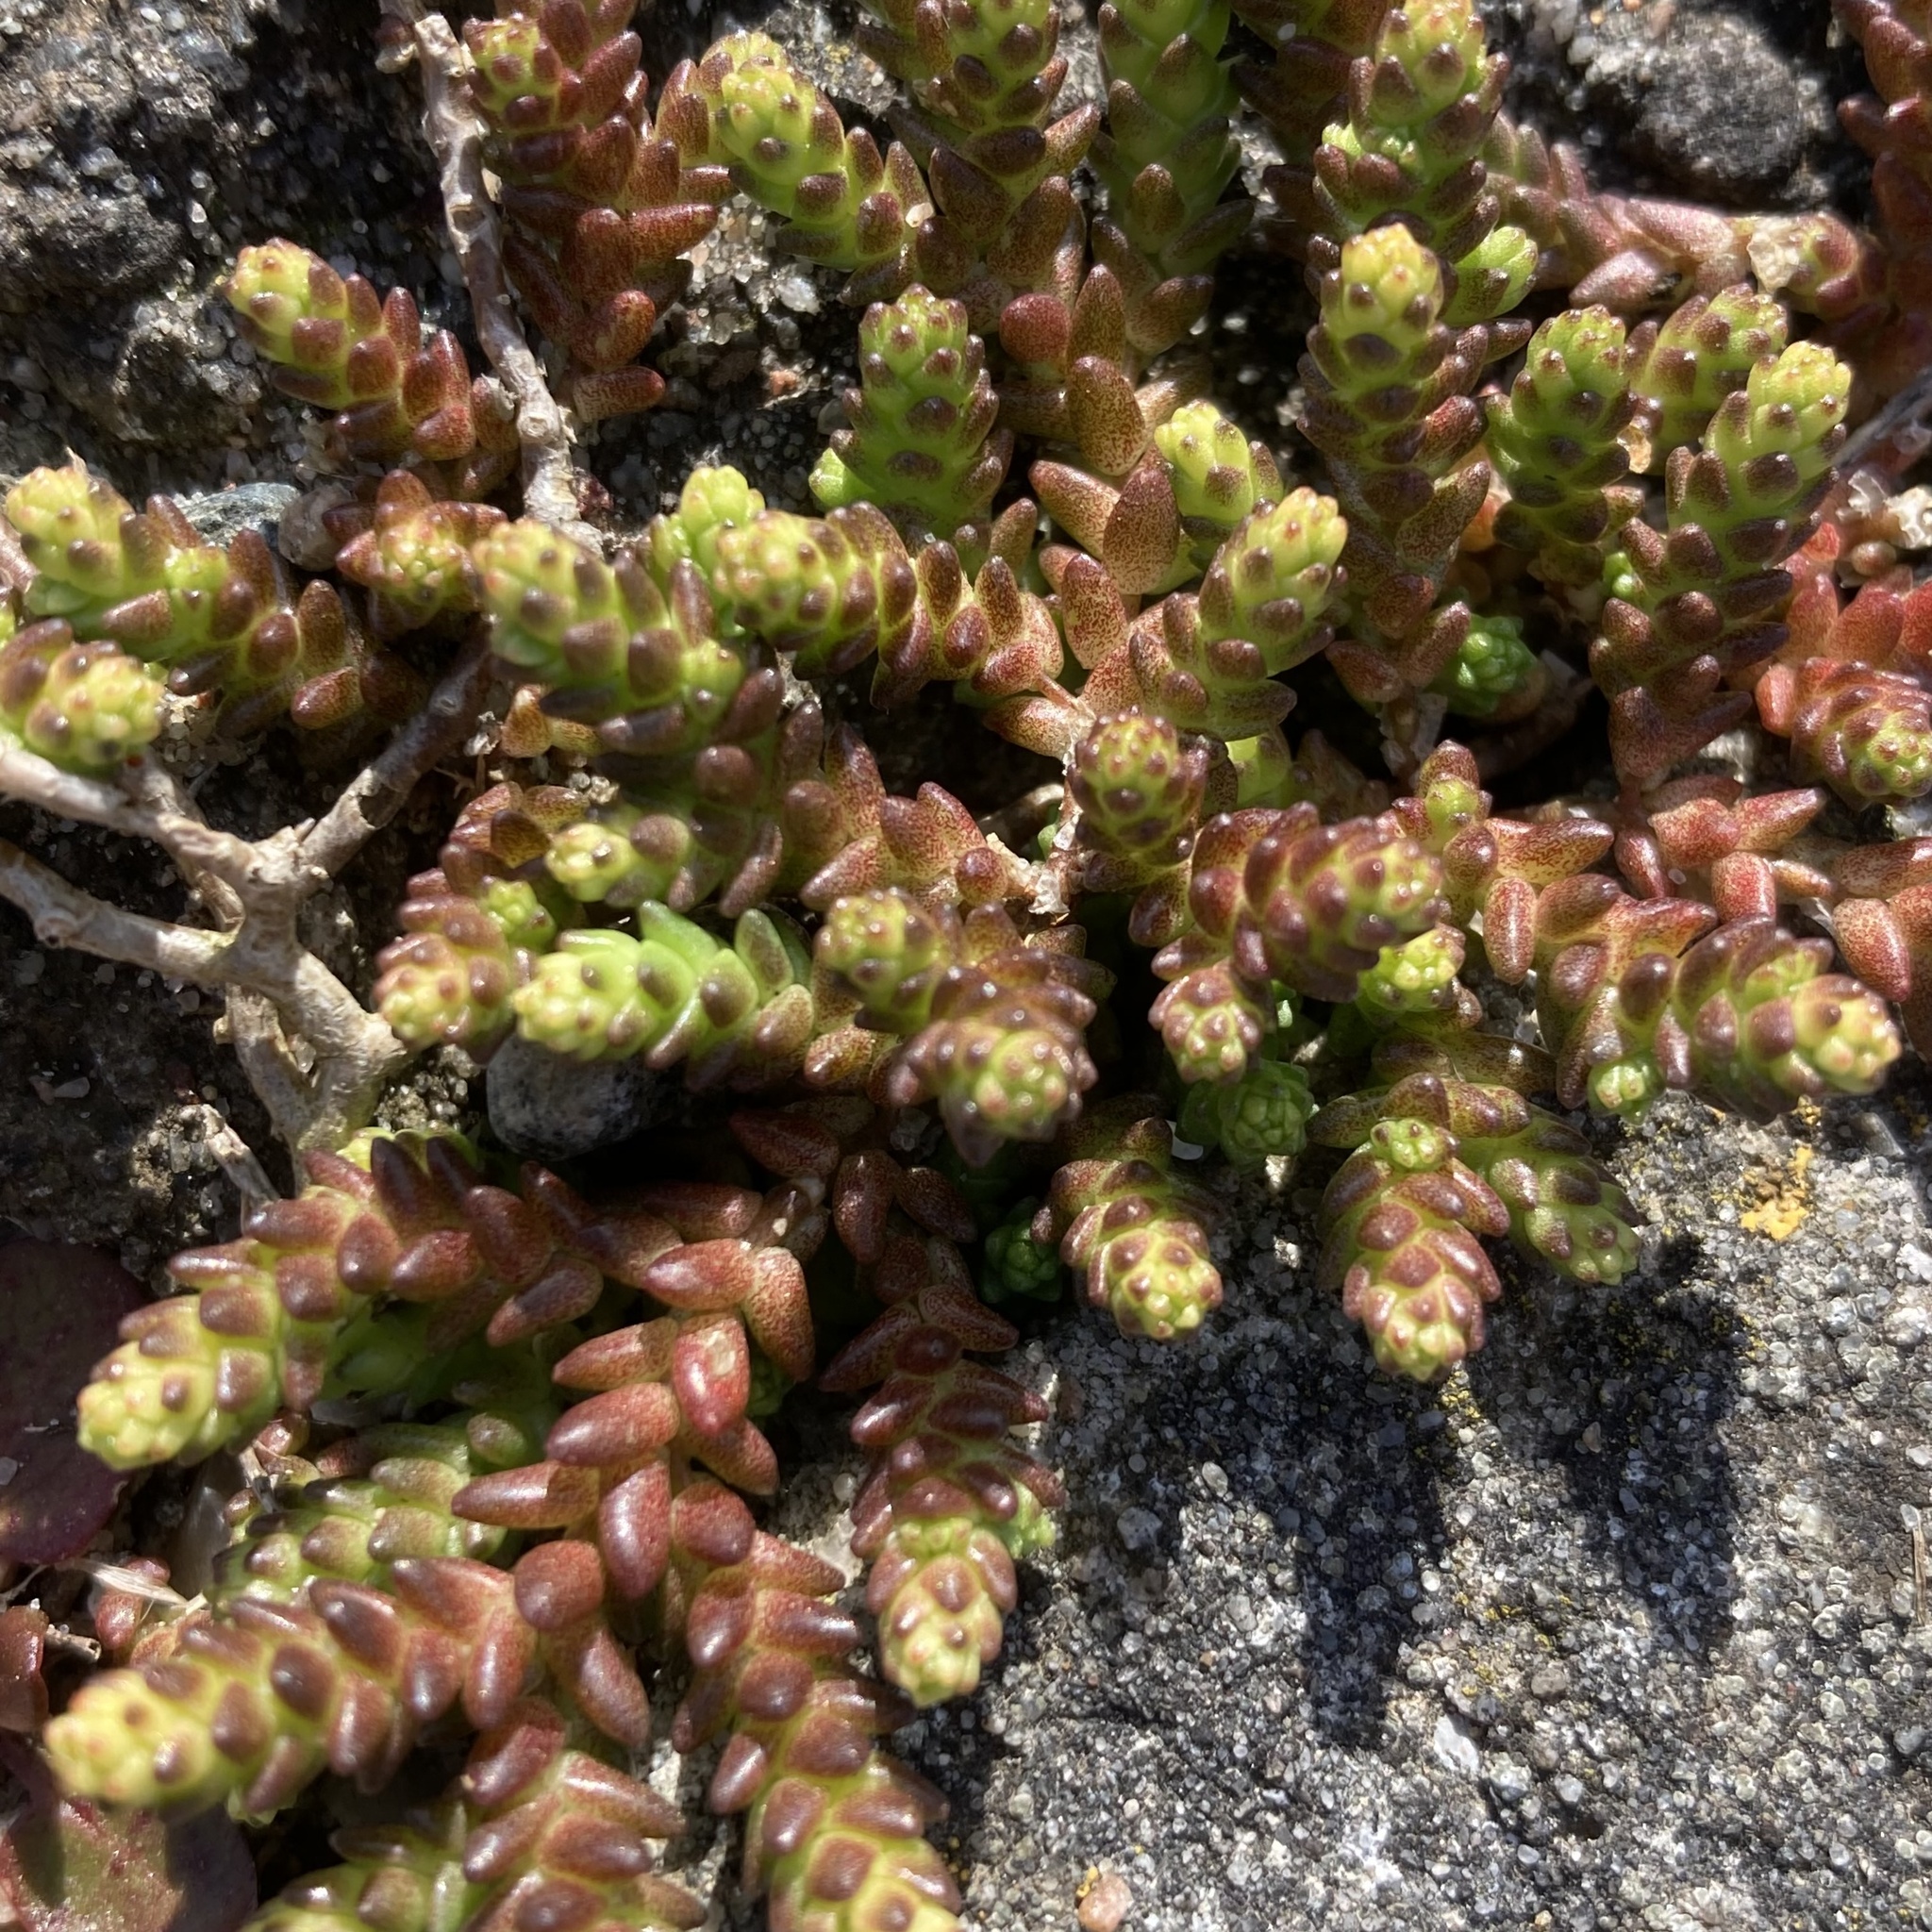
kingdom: Plantae
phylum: Tracheophyta
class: Magnoliopsida
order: Saxifragales
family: Crassulaceae
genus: Sedum
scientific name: Sedum acre
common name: Biting stonecrop
